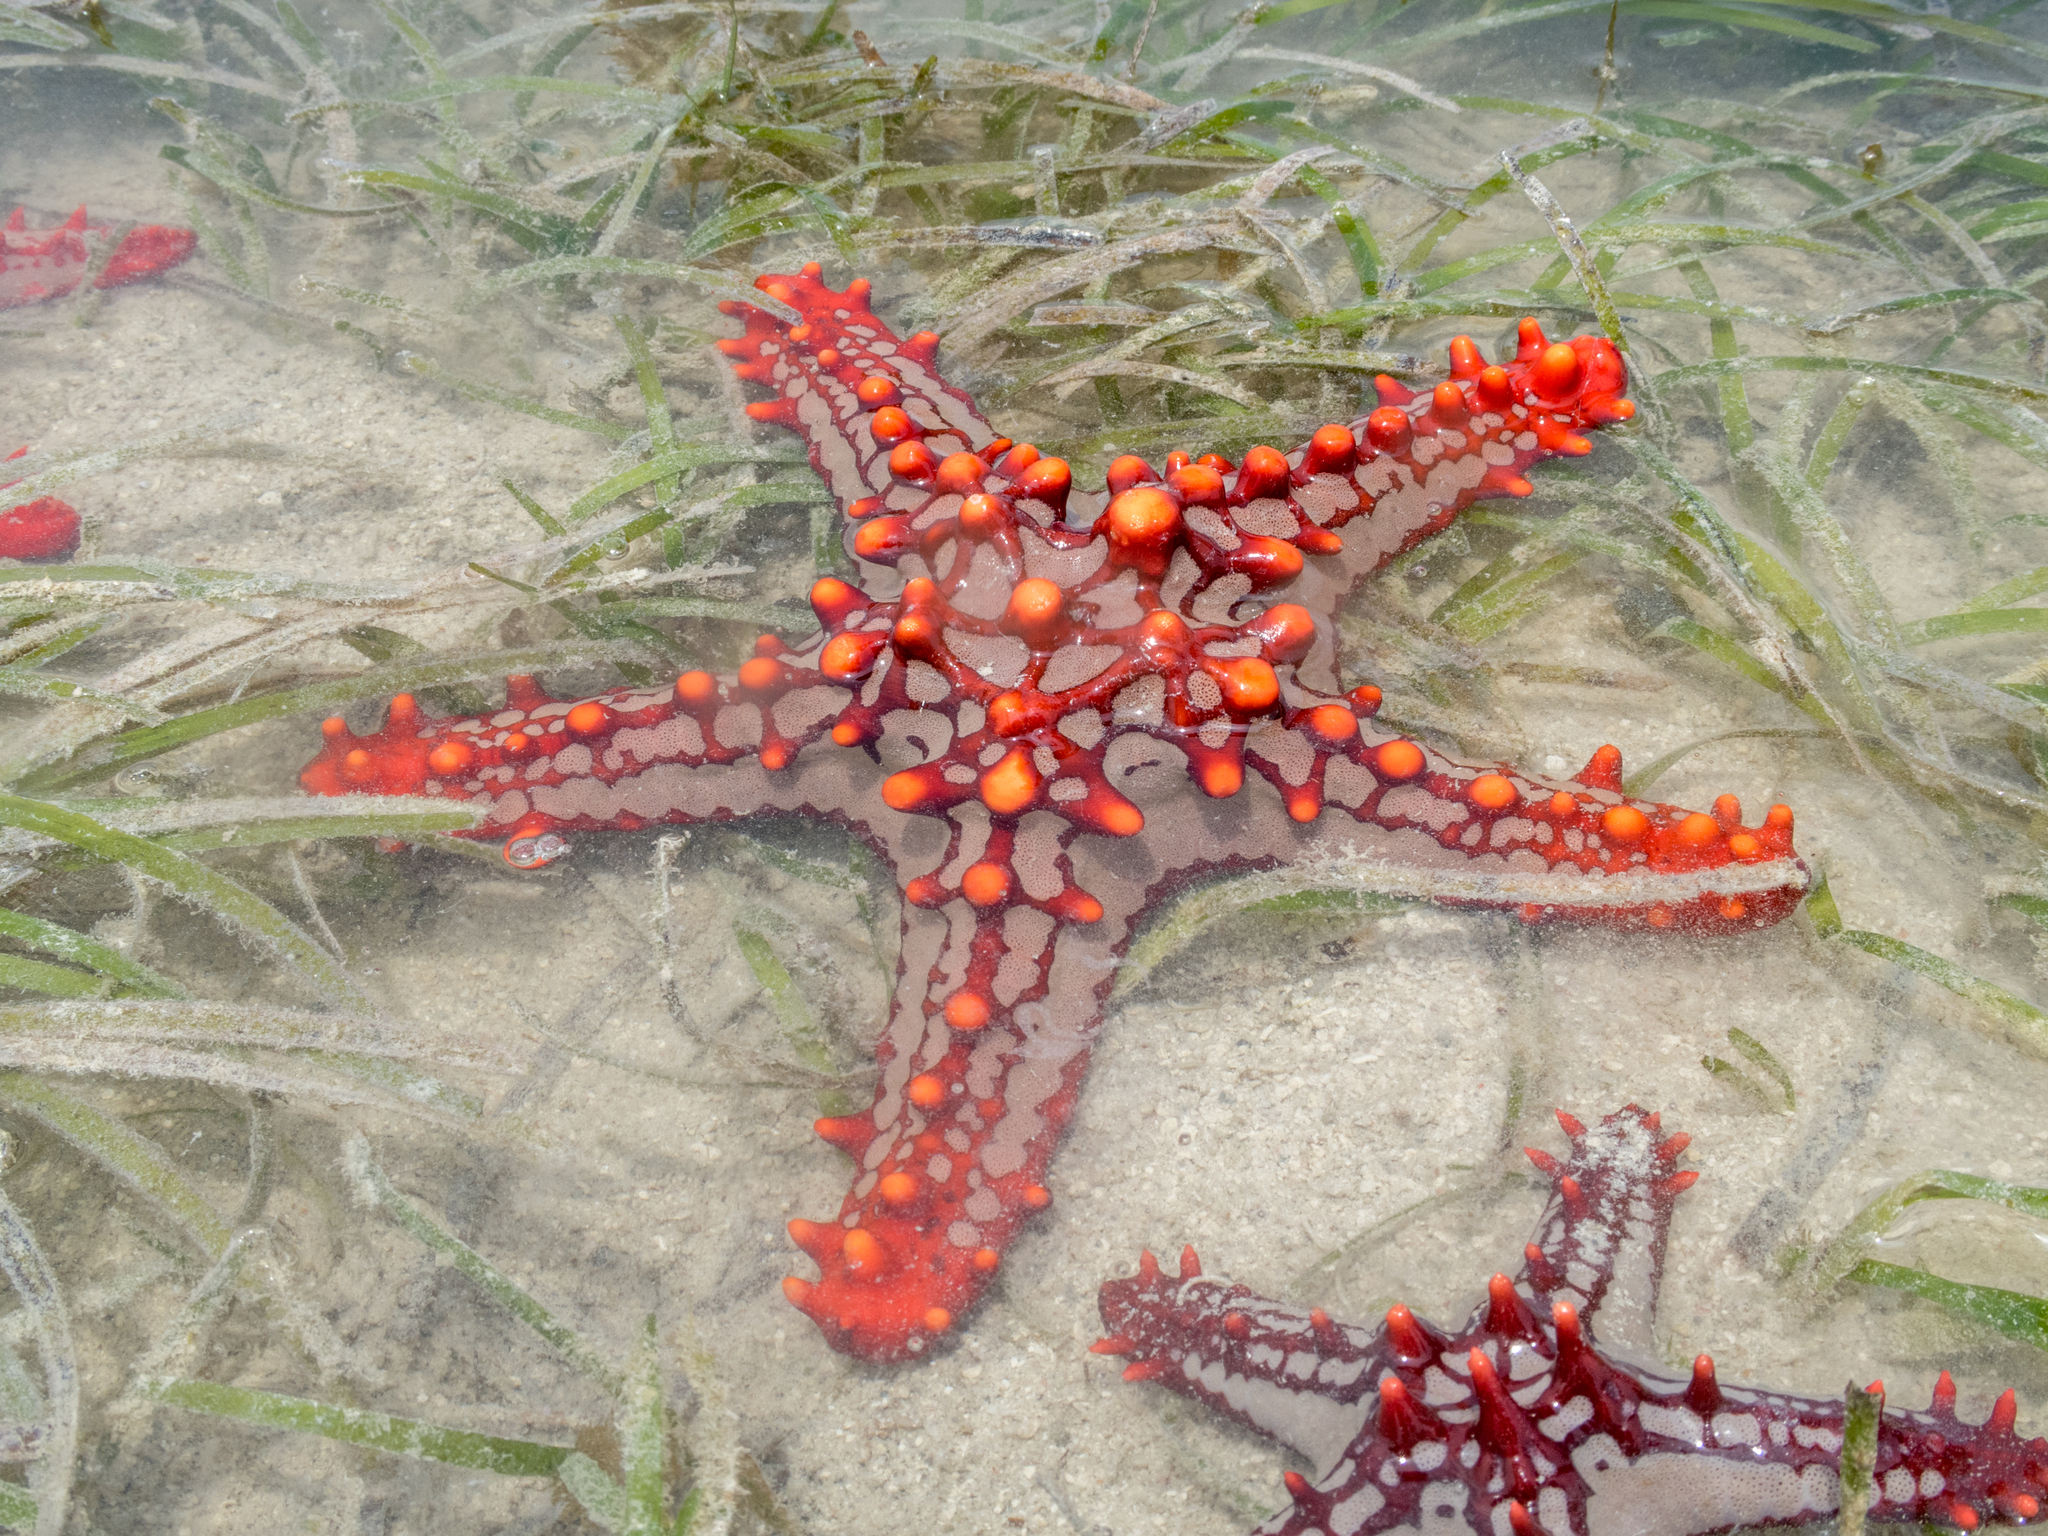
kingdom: Animalia
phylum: Echinodermata
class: Asteroidea
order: Valvatida
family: Oreasteridae
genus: Protoreaster
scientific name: Protoreaster lincki
